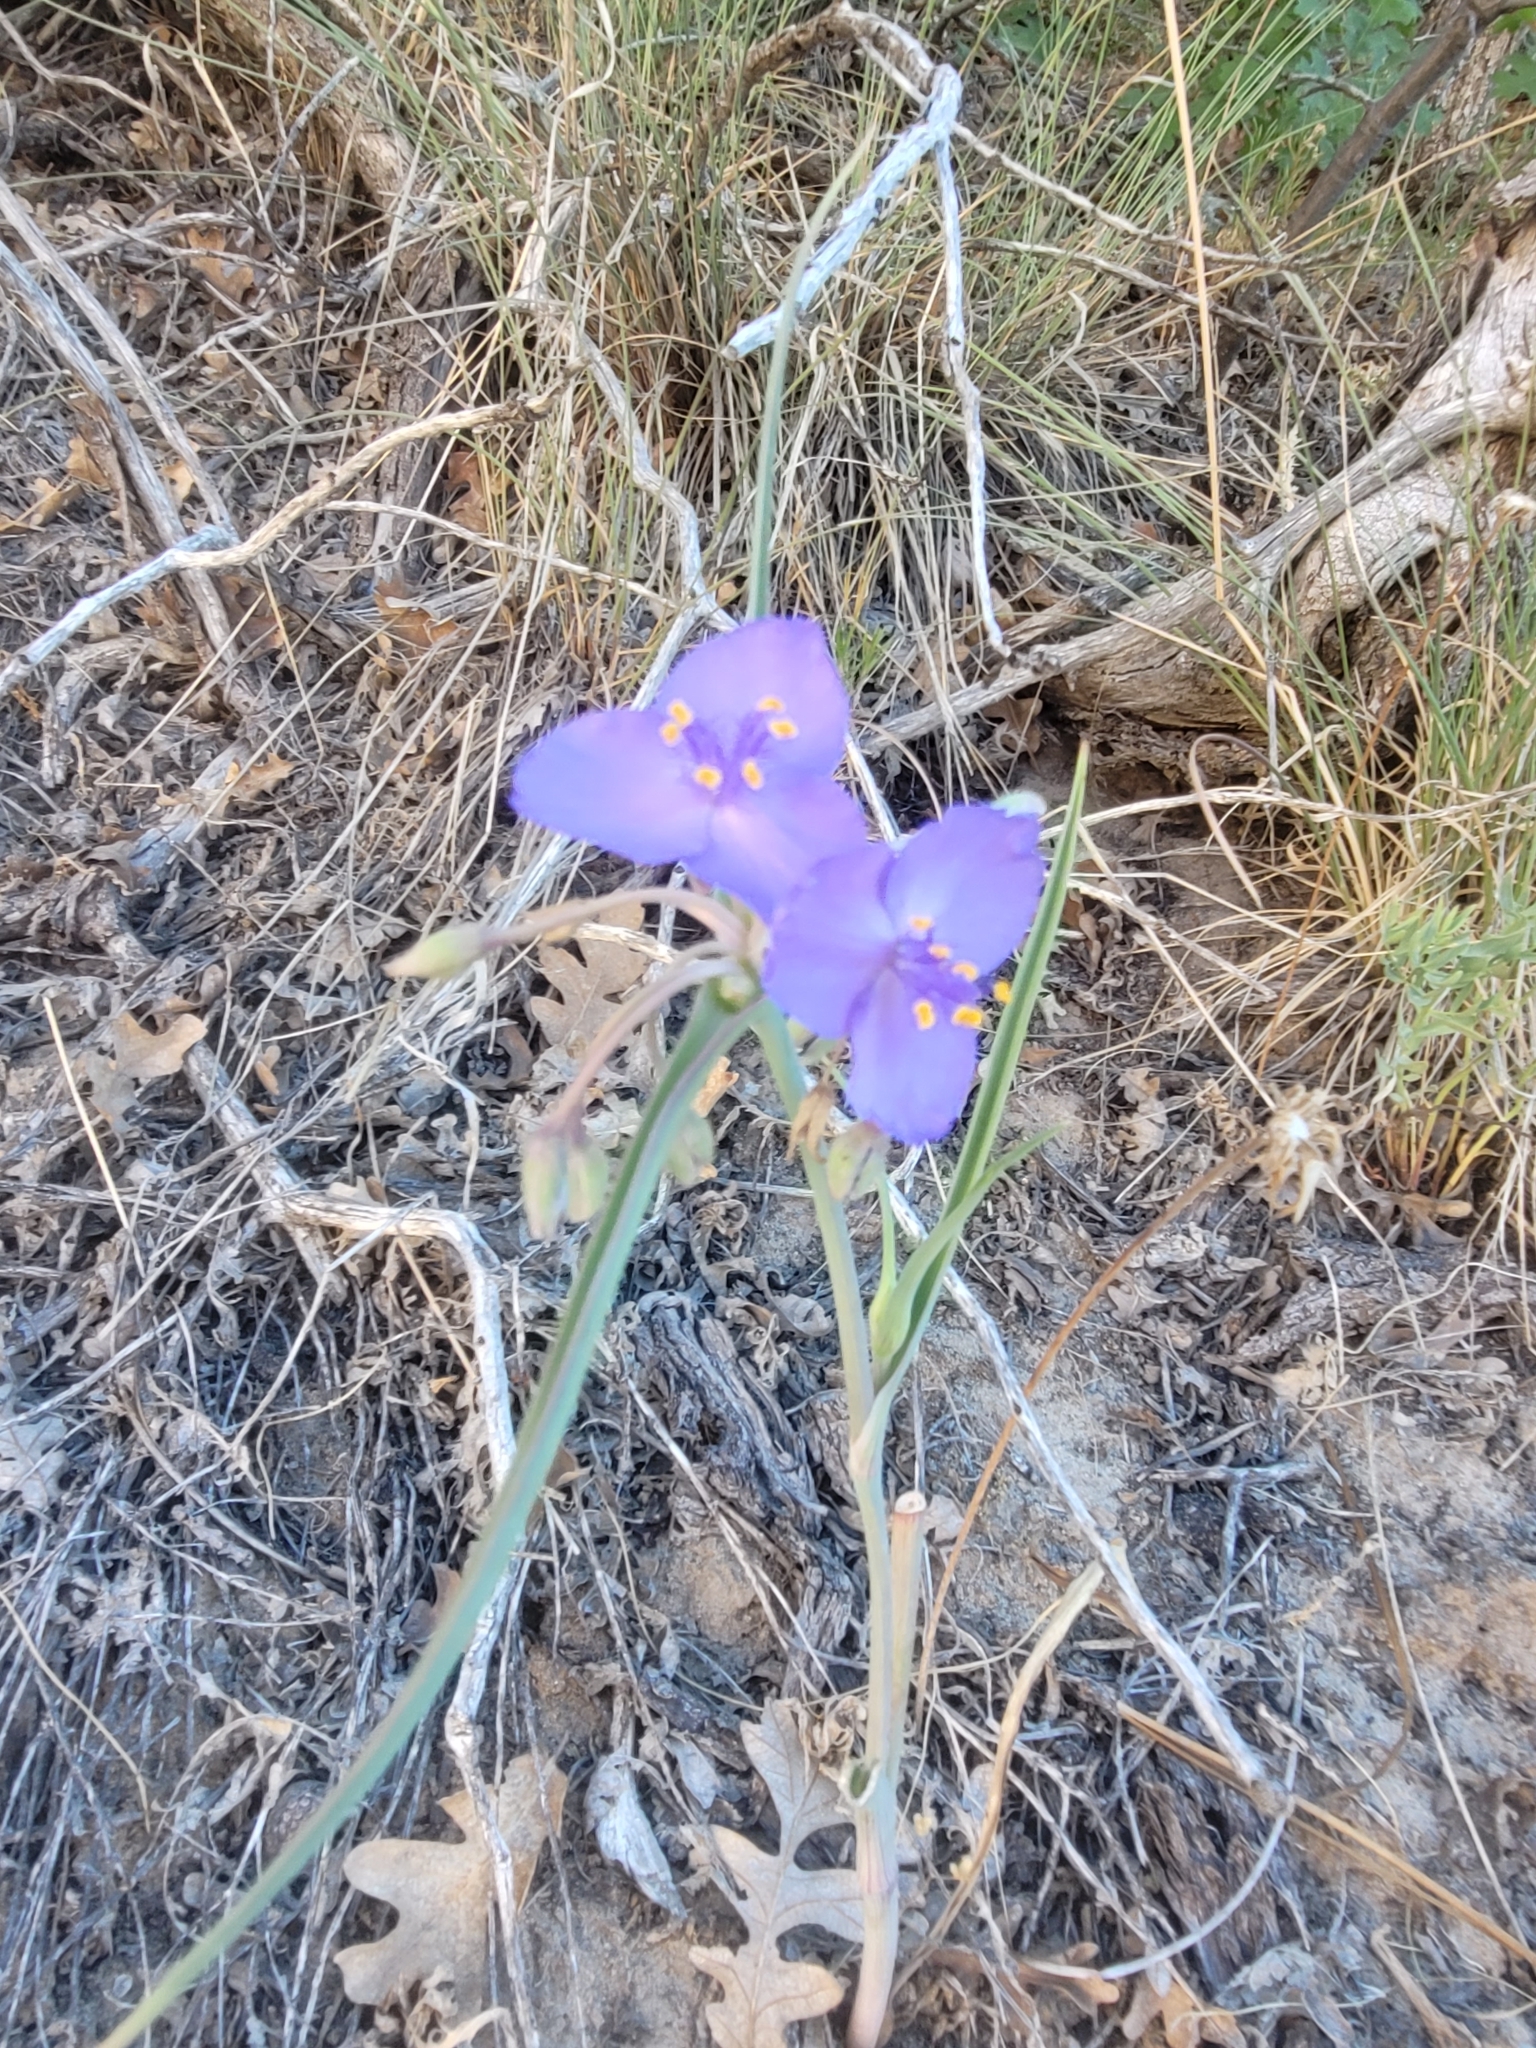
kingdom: Plantae
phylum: Tracheophyta
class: Liliopsida
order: Commelinales
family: Commelinaceae
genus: Tradescantia
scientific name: Tradescantia occidentalis
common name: Prairie spiderwort
